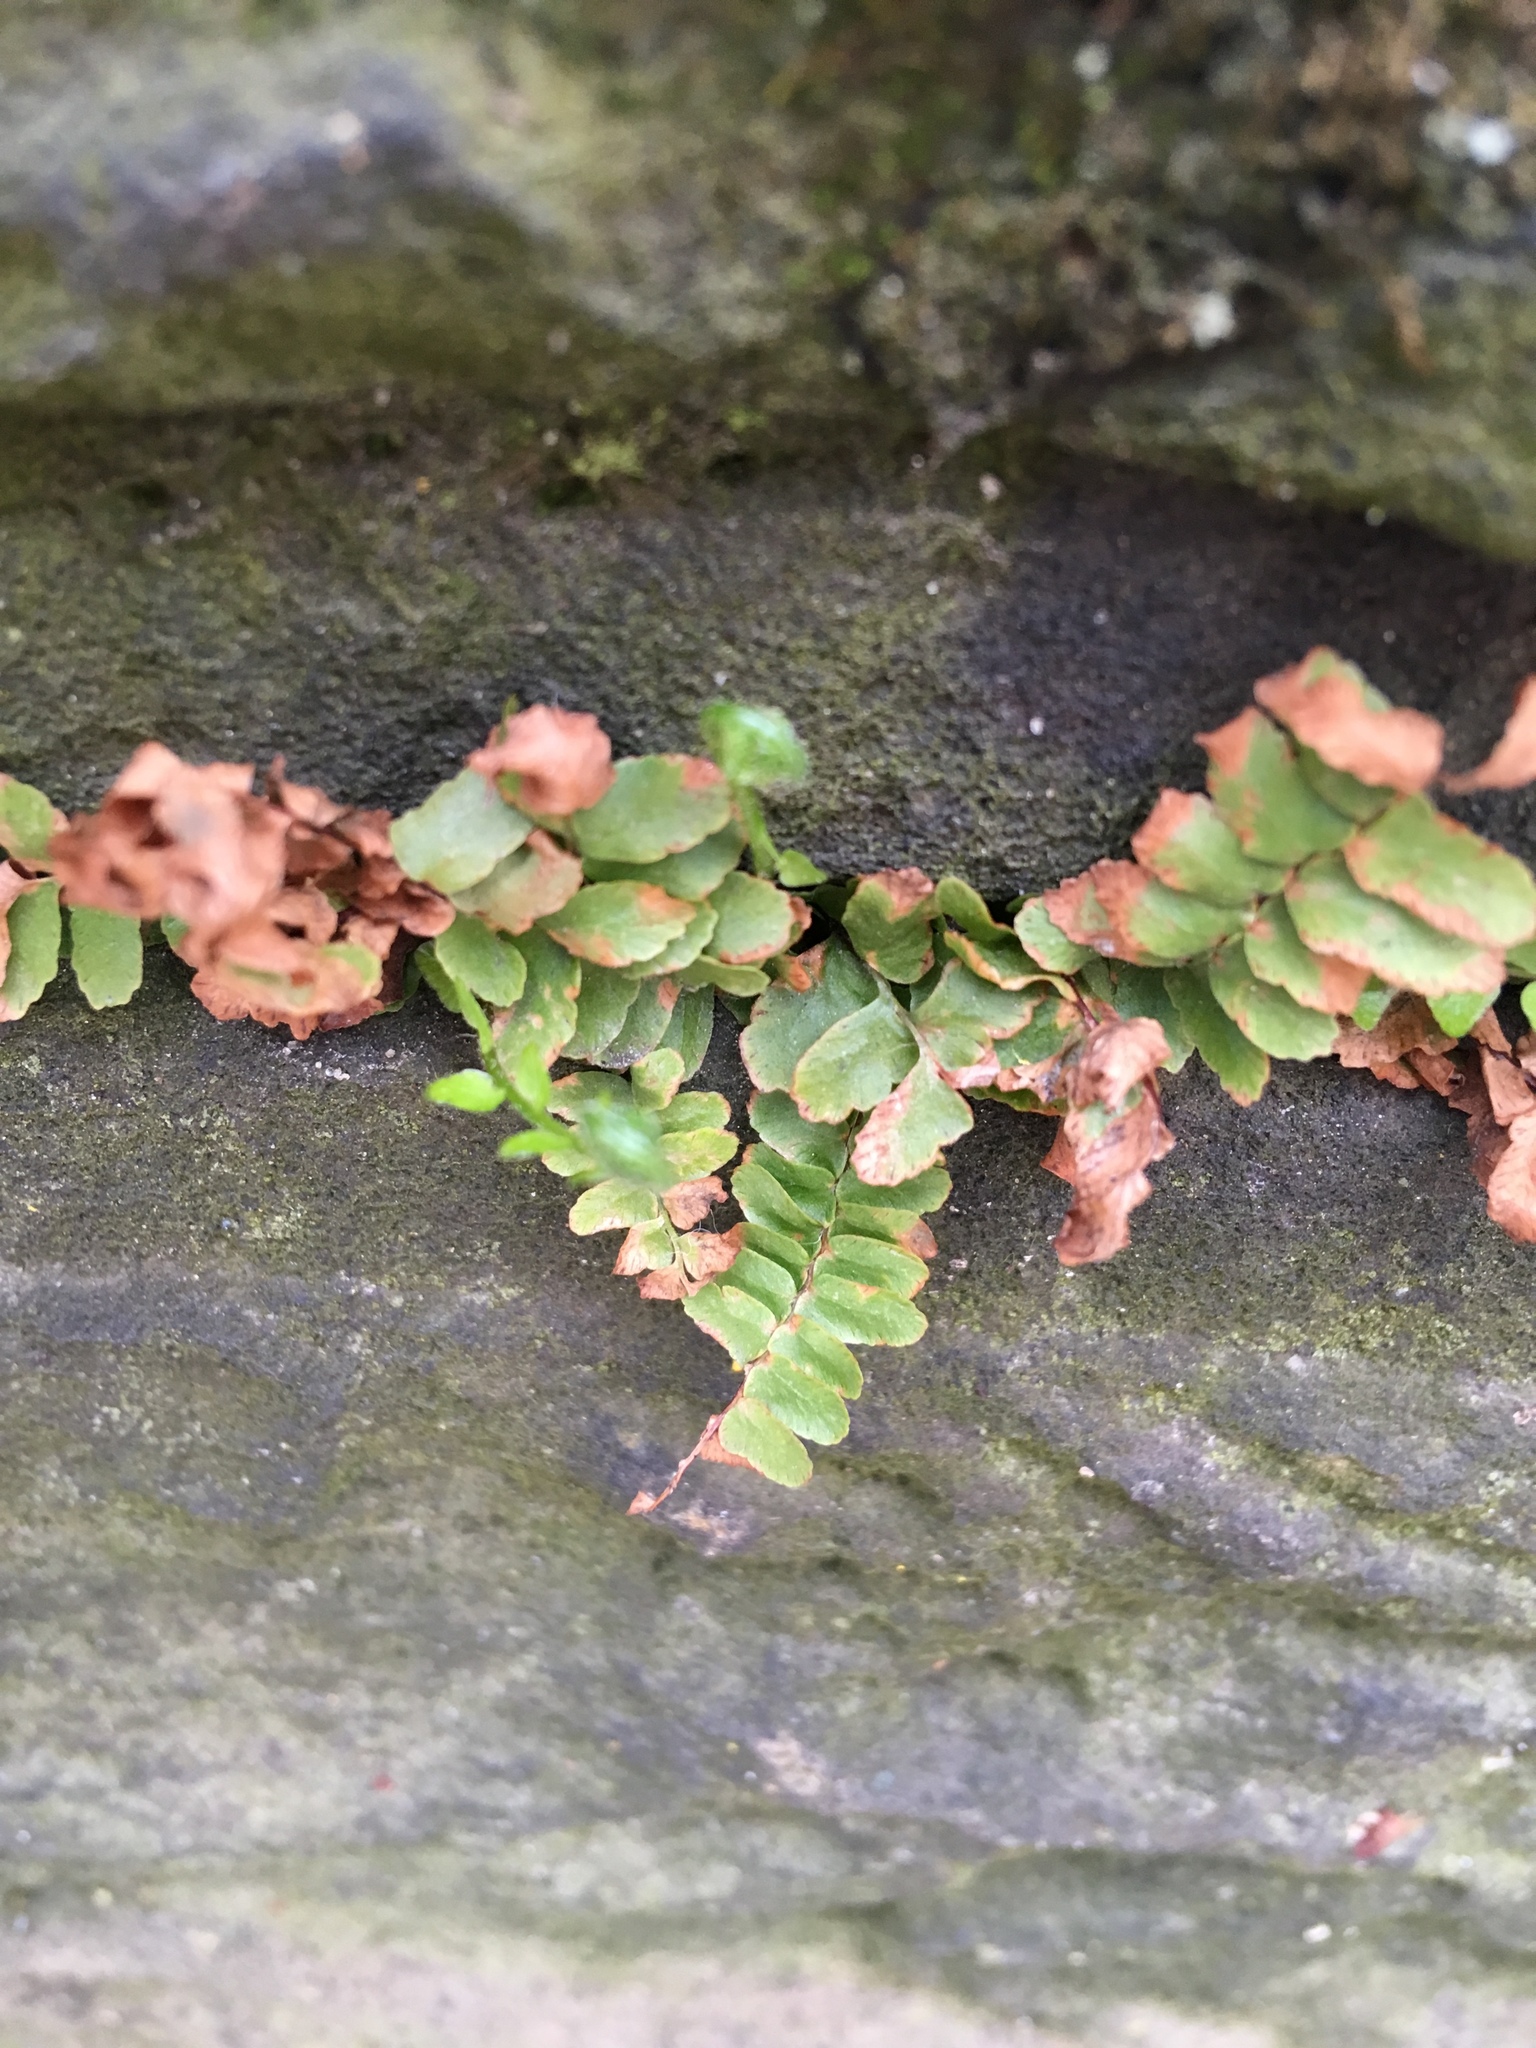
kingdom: Plantae
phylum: Tracheophyta
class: Polypodiopsida
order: Polypodiales
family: Aspleniaceae
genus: Asplenium
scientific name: Asplenium platyneuron
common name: Ebony spleenwort
